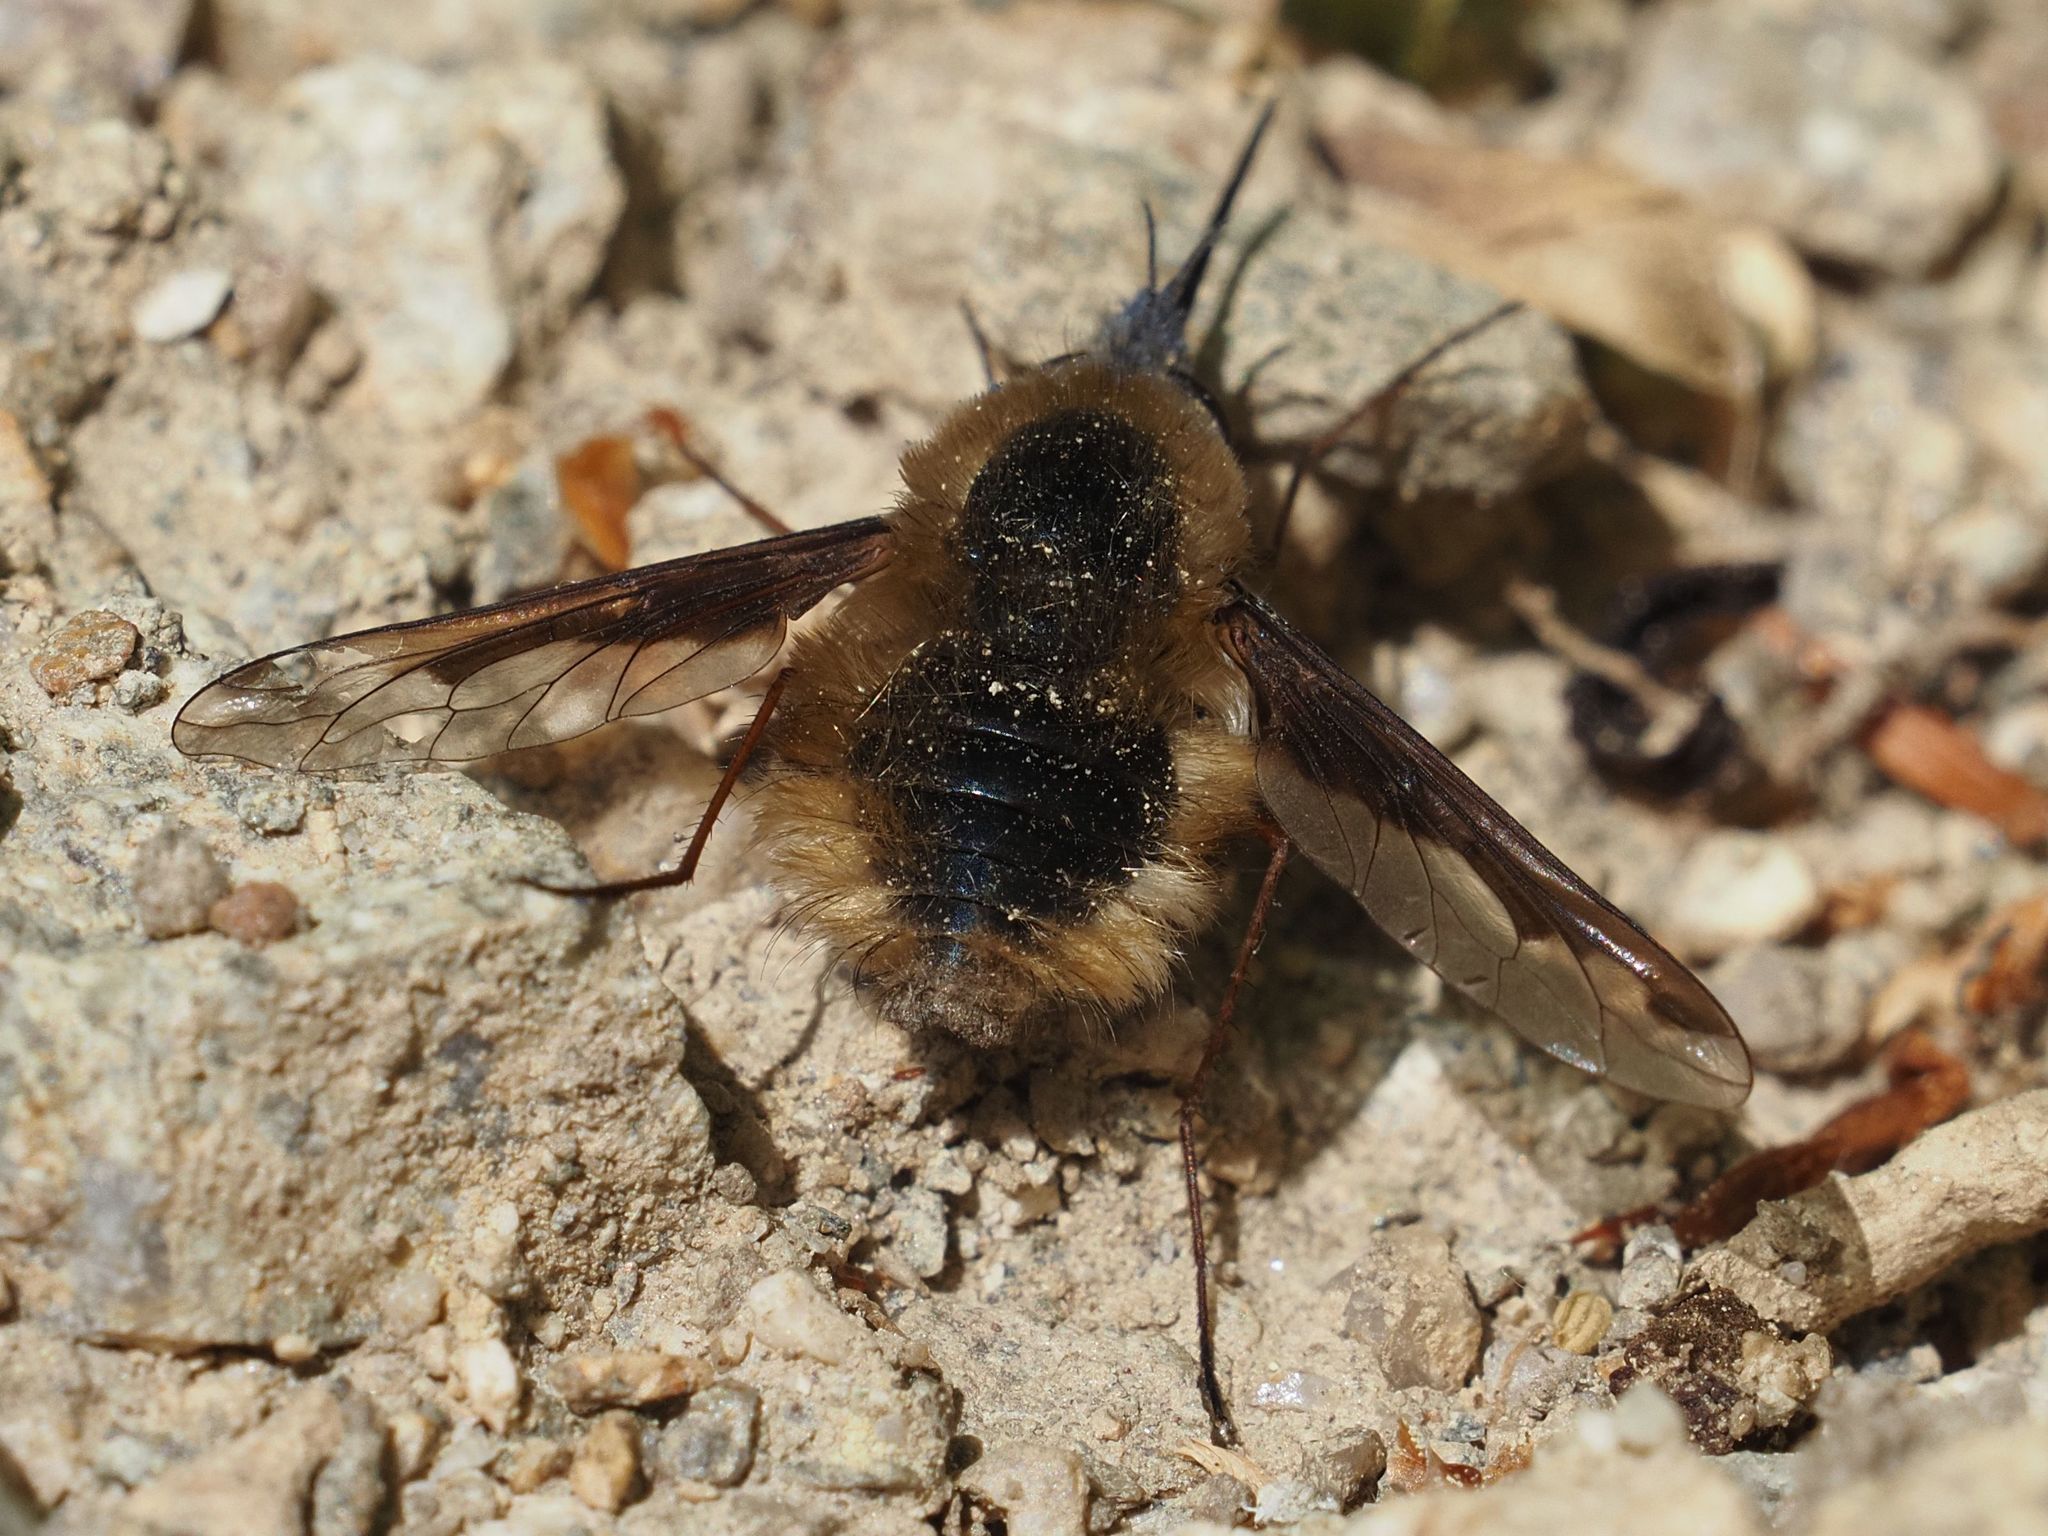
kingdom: Animalia
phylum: Arthropoda
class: Insecta
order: Diptera
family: Bombyliidae
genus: Bombylius
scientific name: Bombylius major
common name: Bee fly
